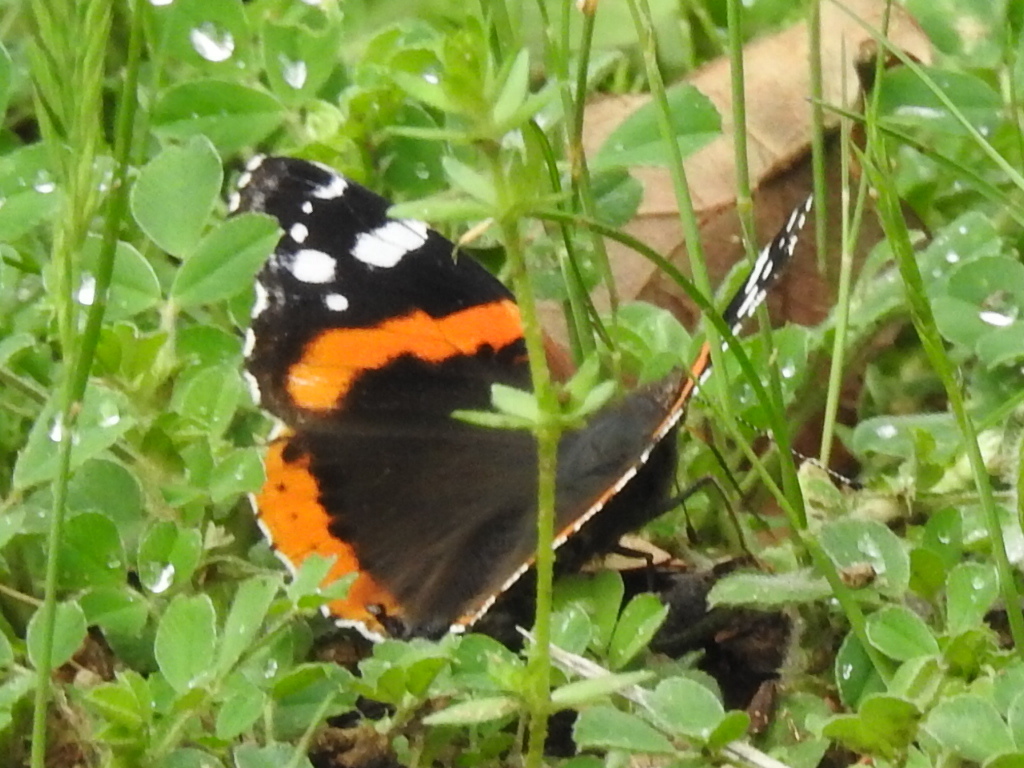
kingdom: Animalia
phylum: Arthropoda
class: Insecta
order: Lepidoptera
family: Nymphalidae
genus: Vanessa
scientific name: Vanessa atalanta
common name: Red admiral
